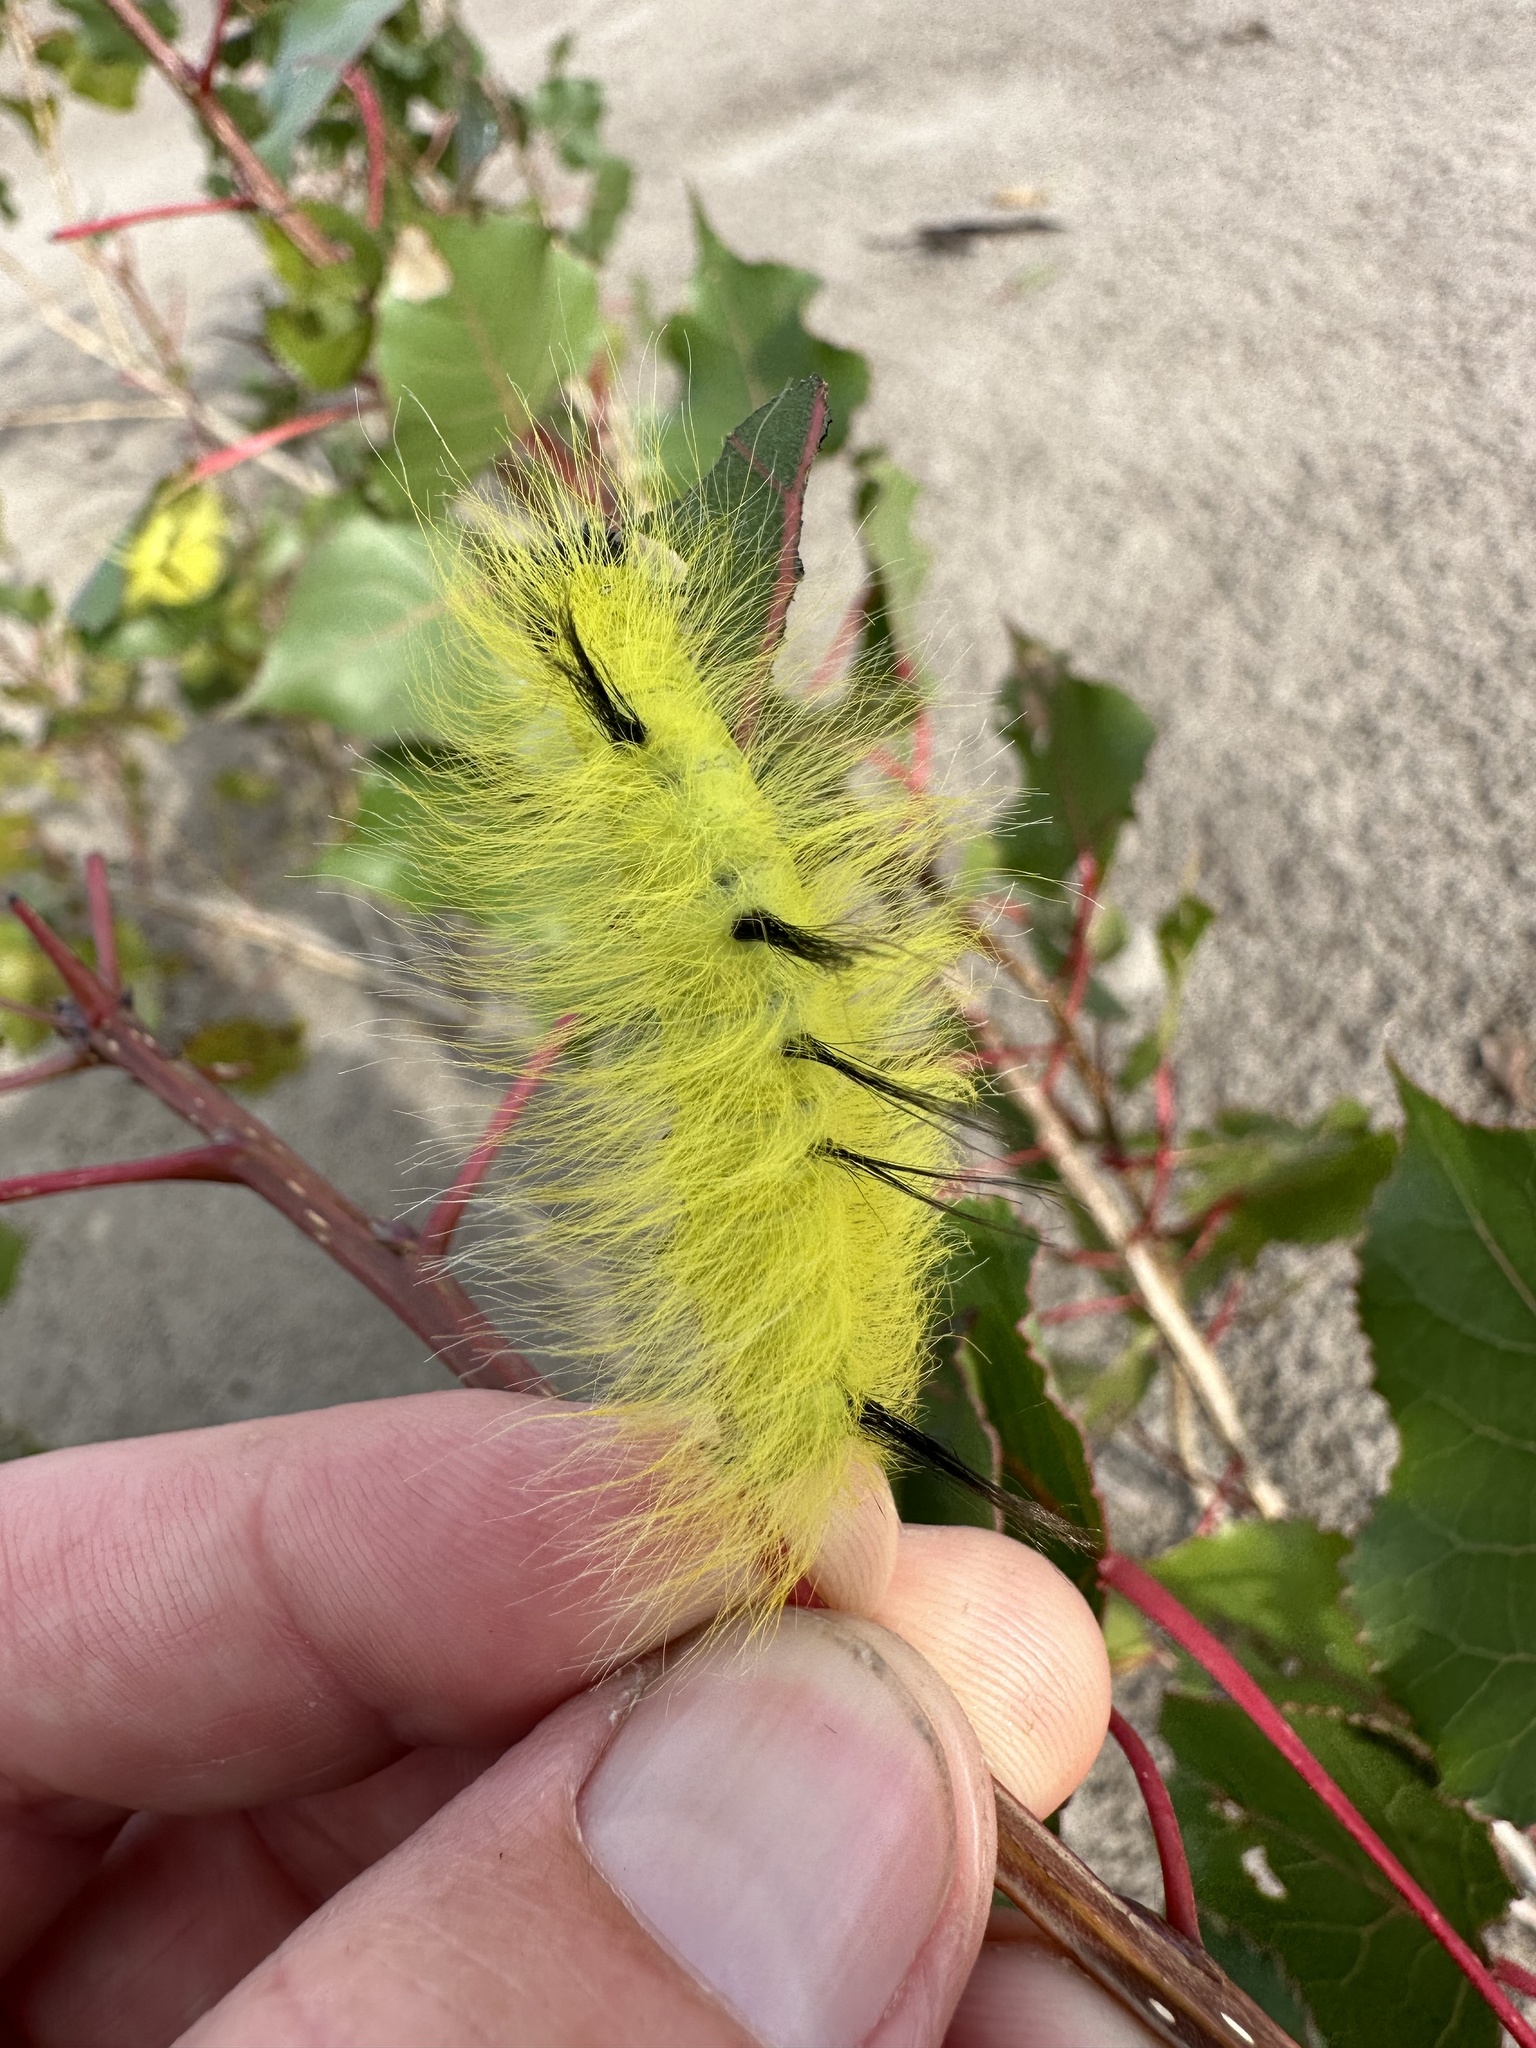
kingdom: Animalia
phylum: Arthropoda
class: Insecta
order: Lepidoptera
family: Noctuidae
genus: Acronicta
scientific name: Acronicta lepusculina
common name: Cottonwood dagger
